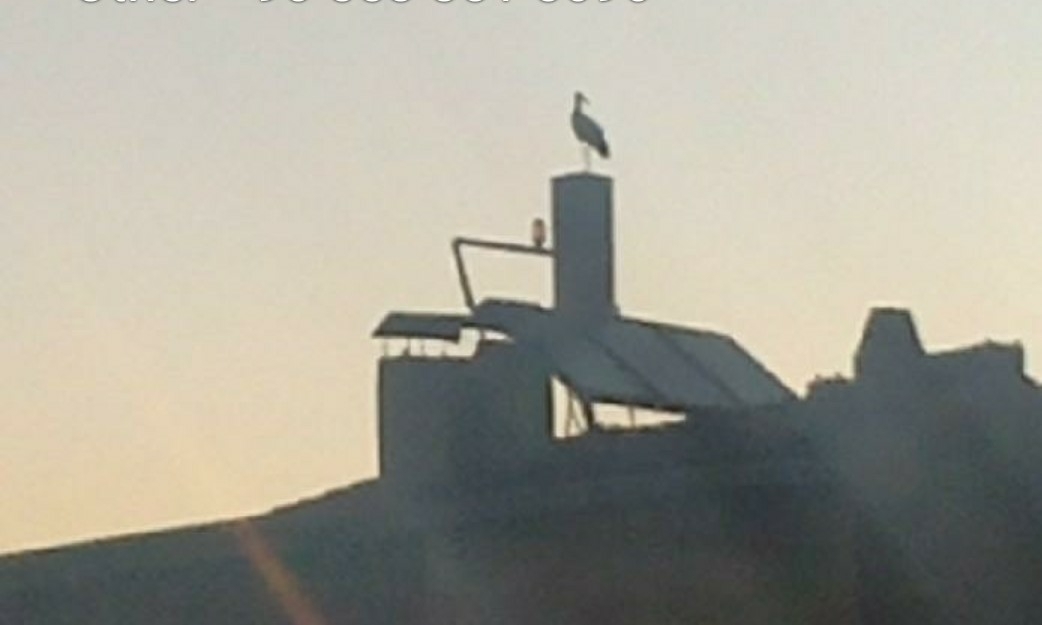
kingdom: Animalia
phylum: Chordata
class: Aves
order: Ciconiiformes
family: Ciconiidae
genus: Ciconia
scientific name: Ciconia ciconia
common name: White stork
